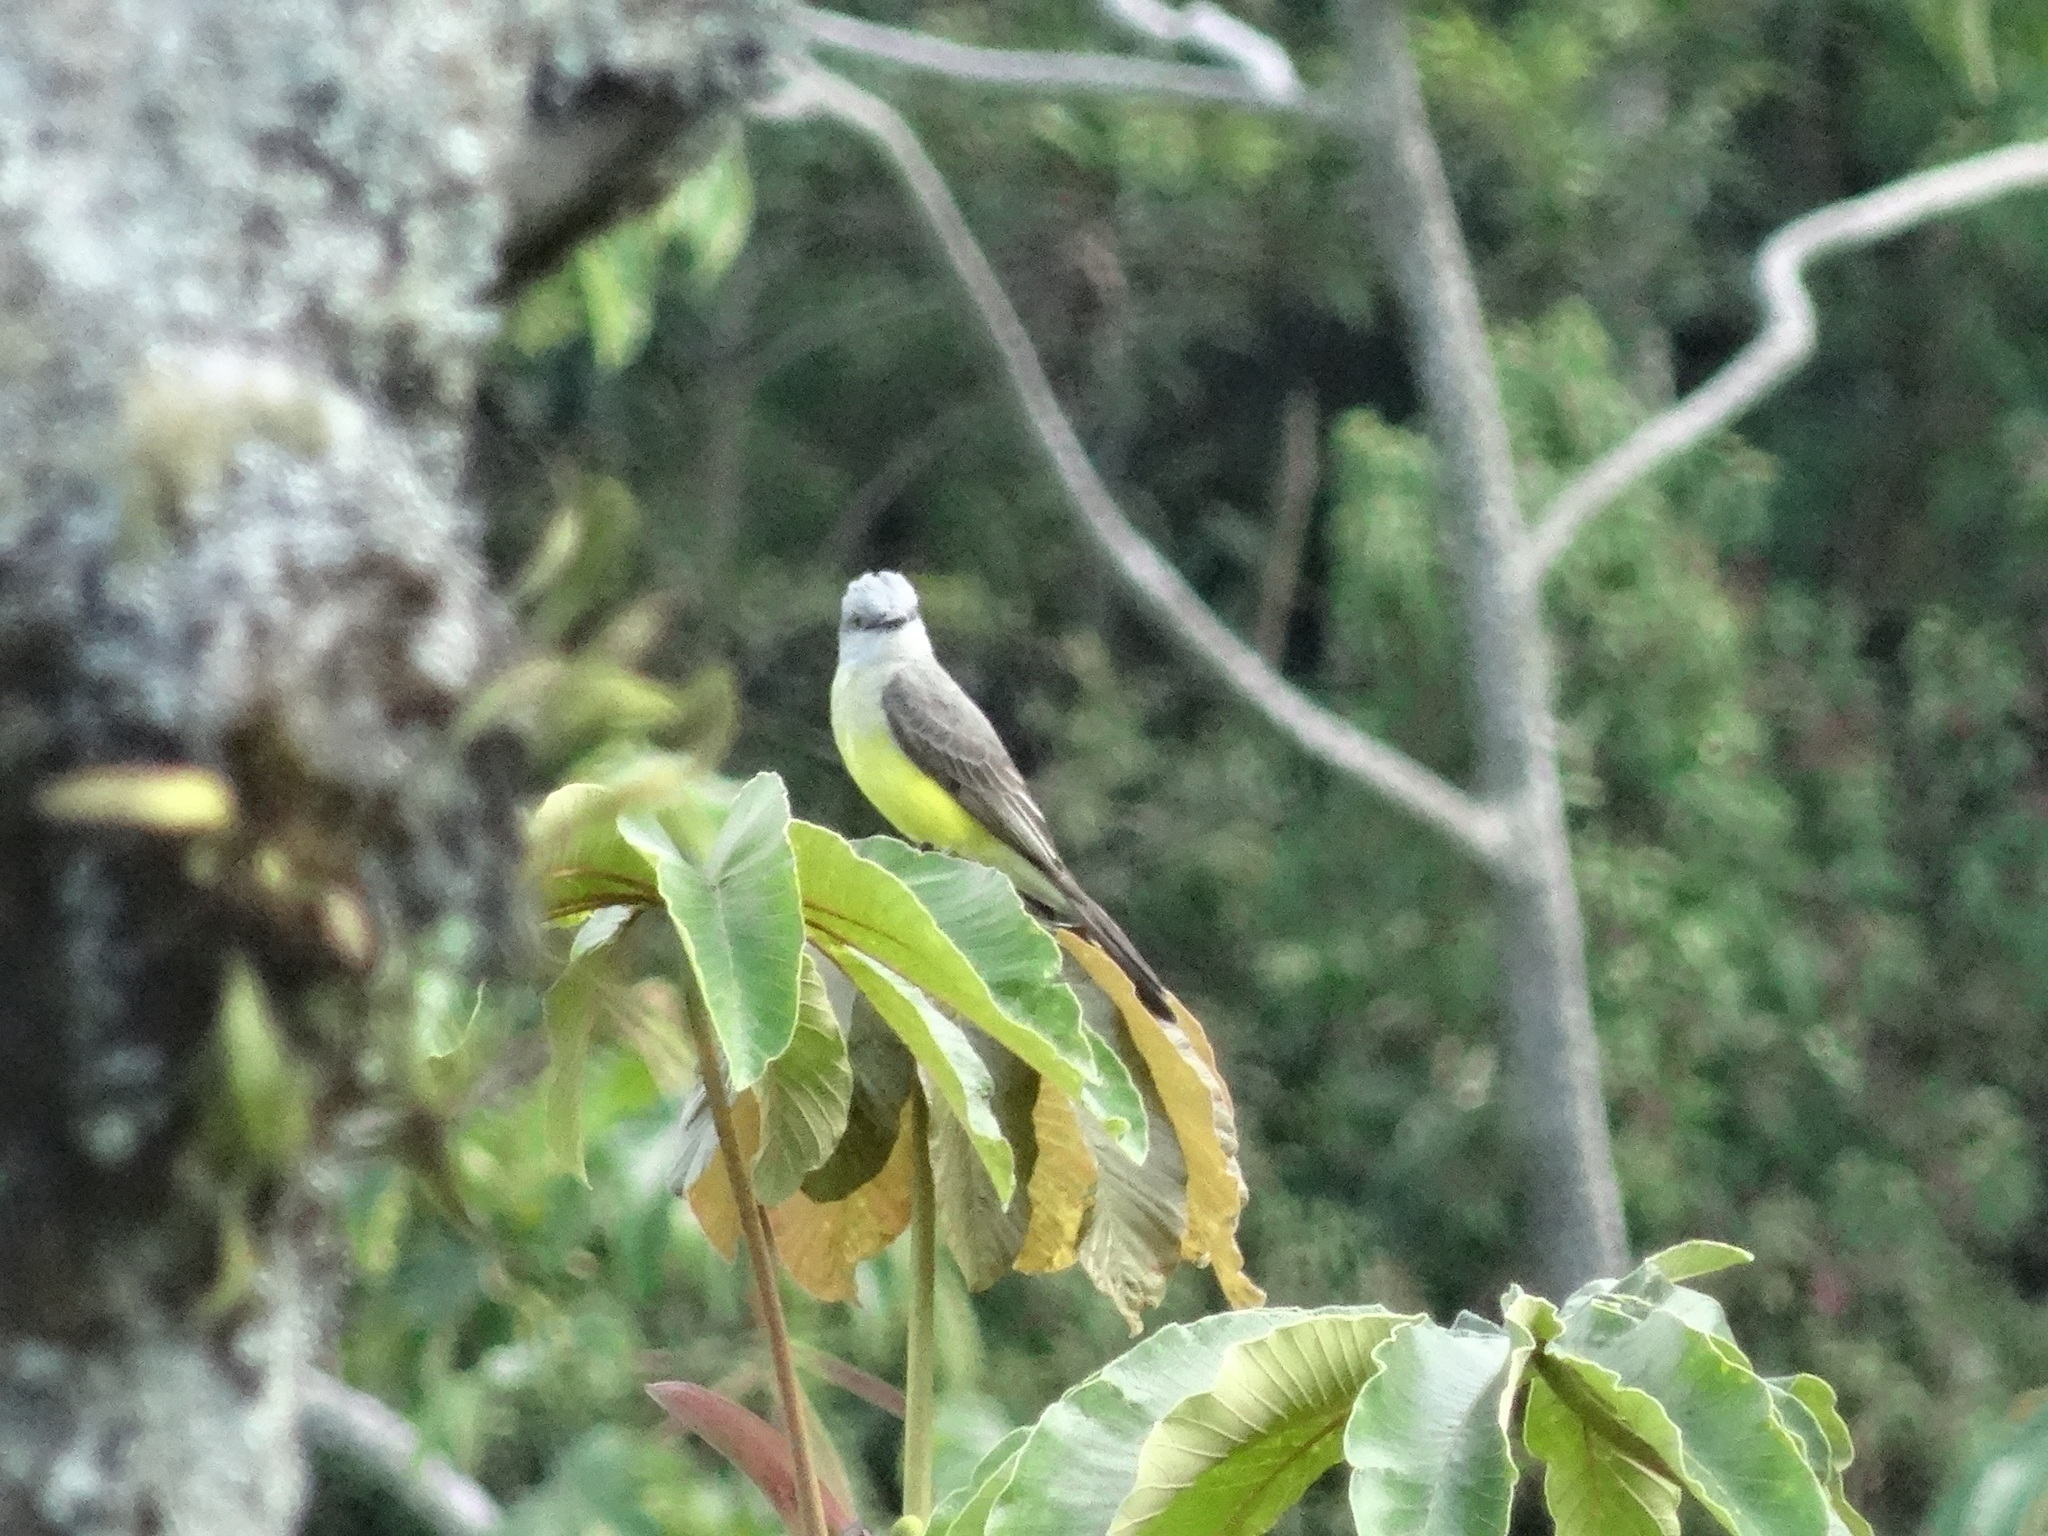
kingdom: Animalia
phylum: Chordata
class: Aves
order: Passeriformes
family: Tyrannidae
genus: Tyrannus
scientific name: Tyrannus melancholicus
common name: Tropical kingbird
